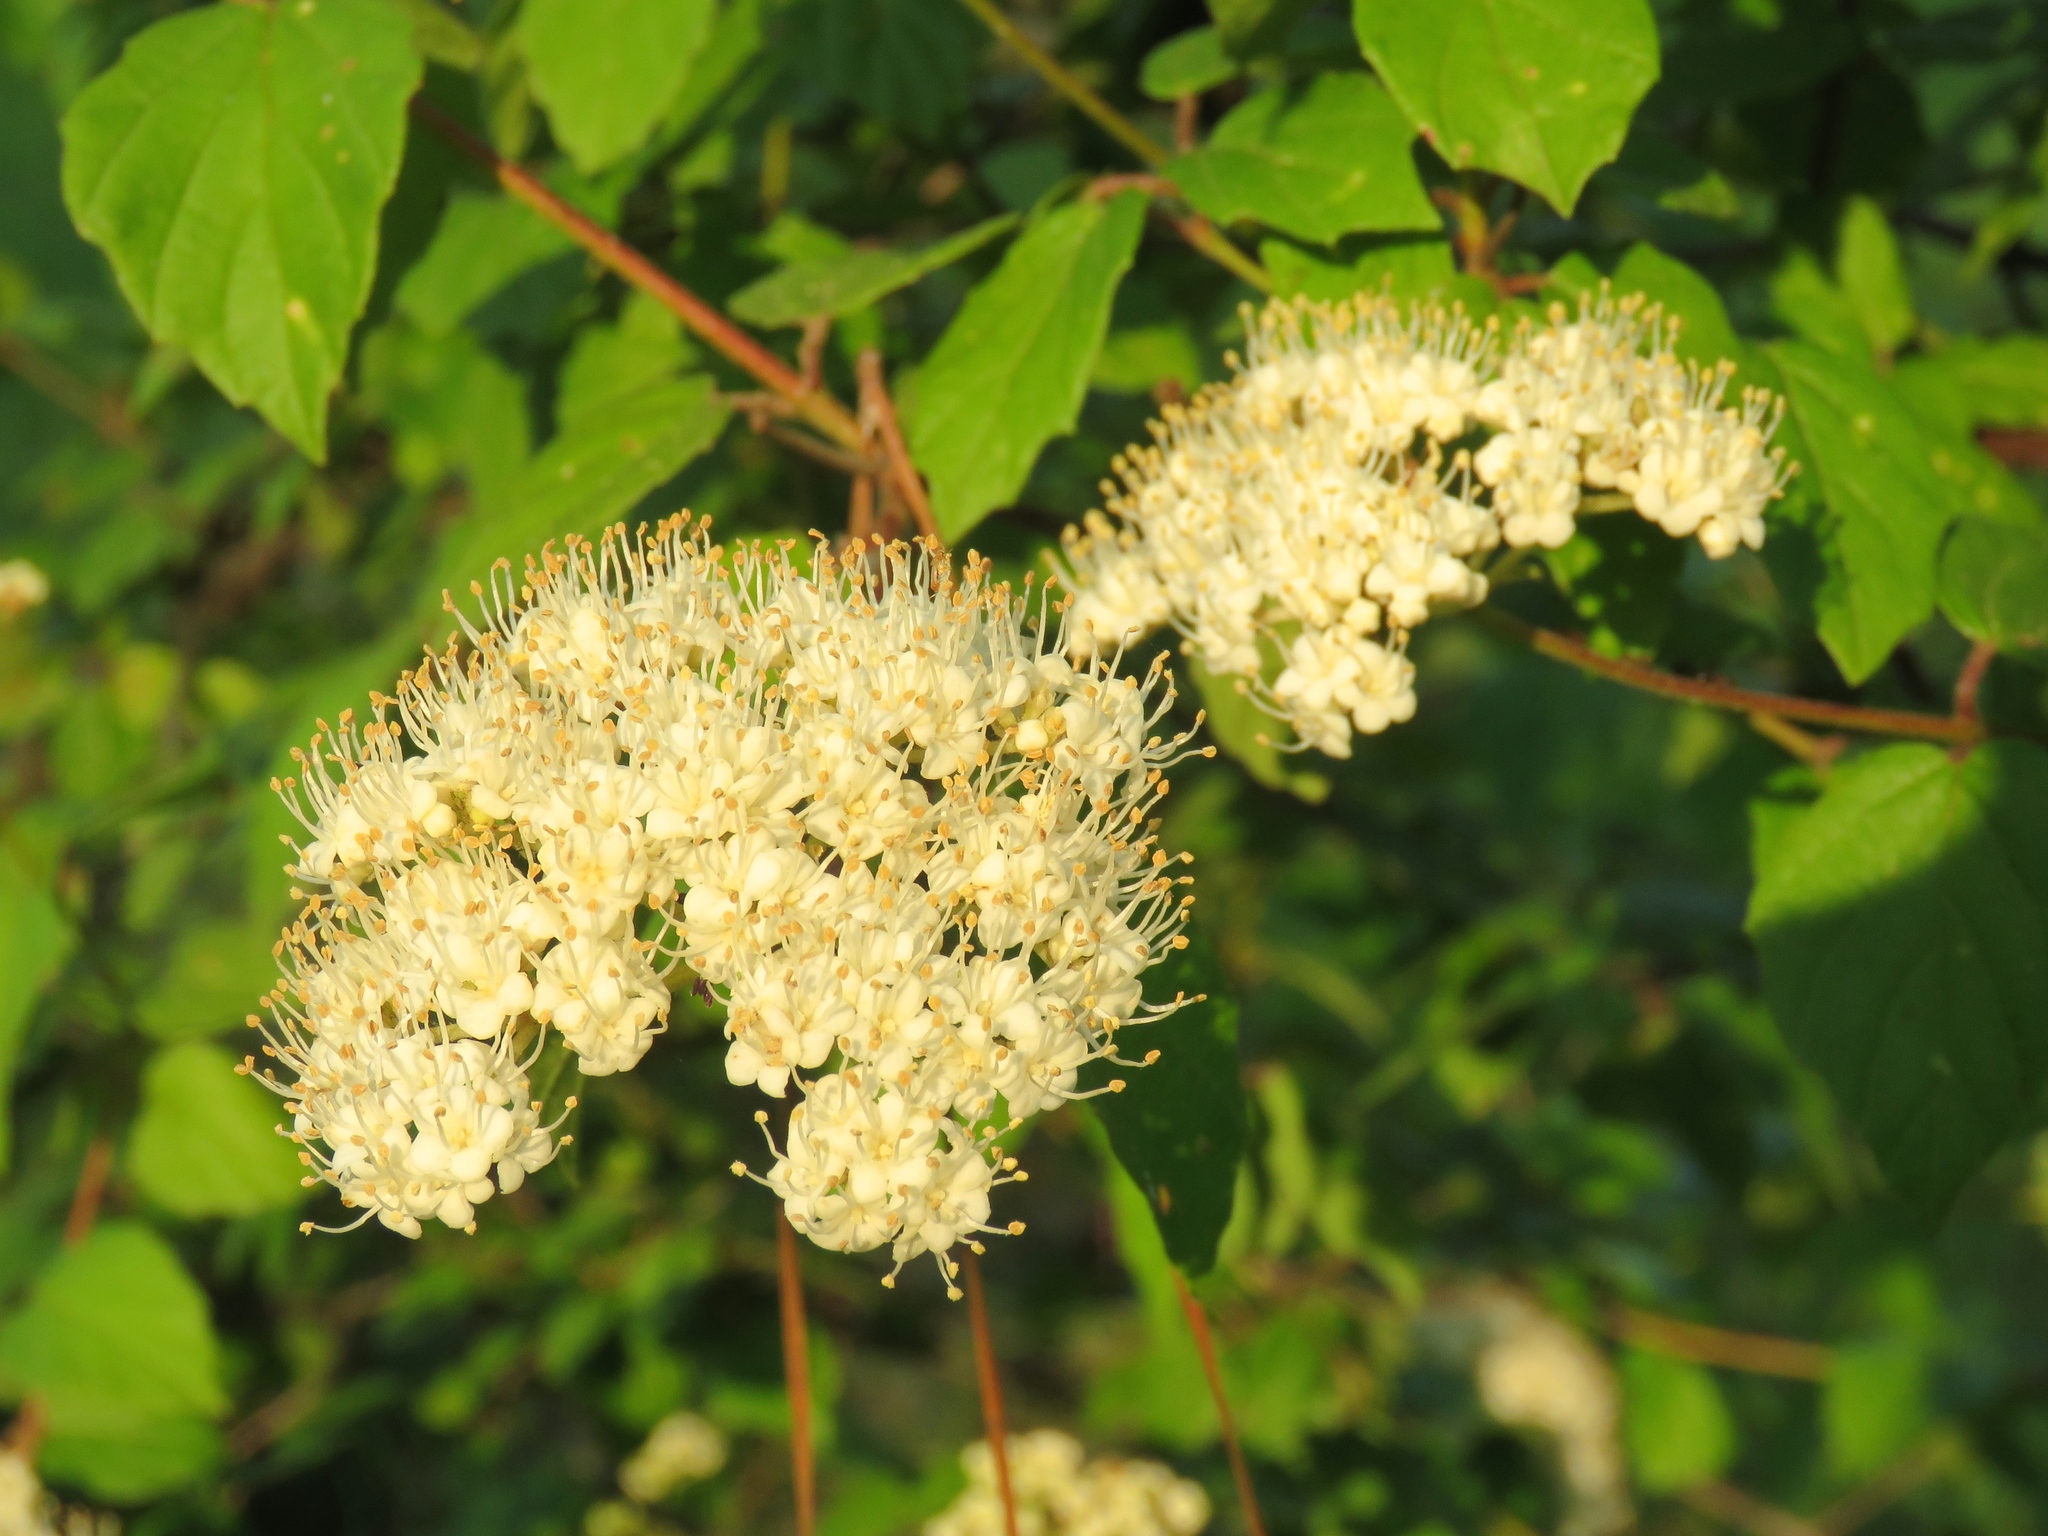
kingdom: Plantae
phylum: Tracheophyta
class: Magnoliopsida
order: Dipsacales
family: Viburnaceae
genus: Viburnum
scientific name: Viburnum scabrellum
